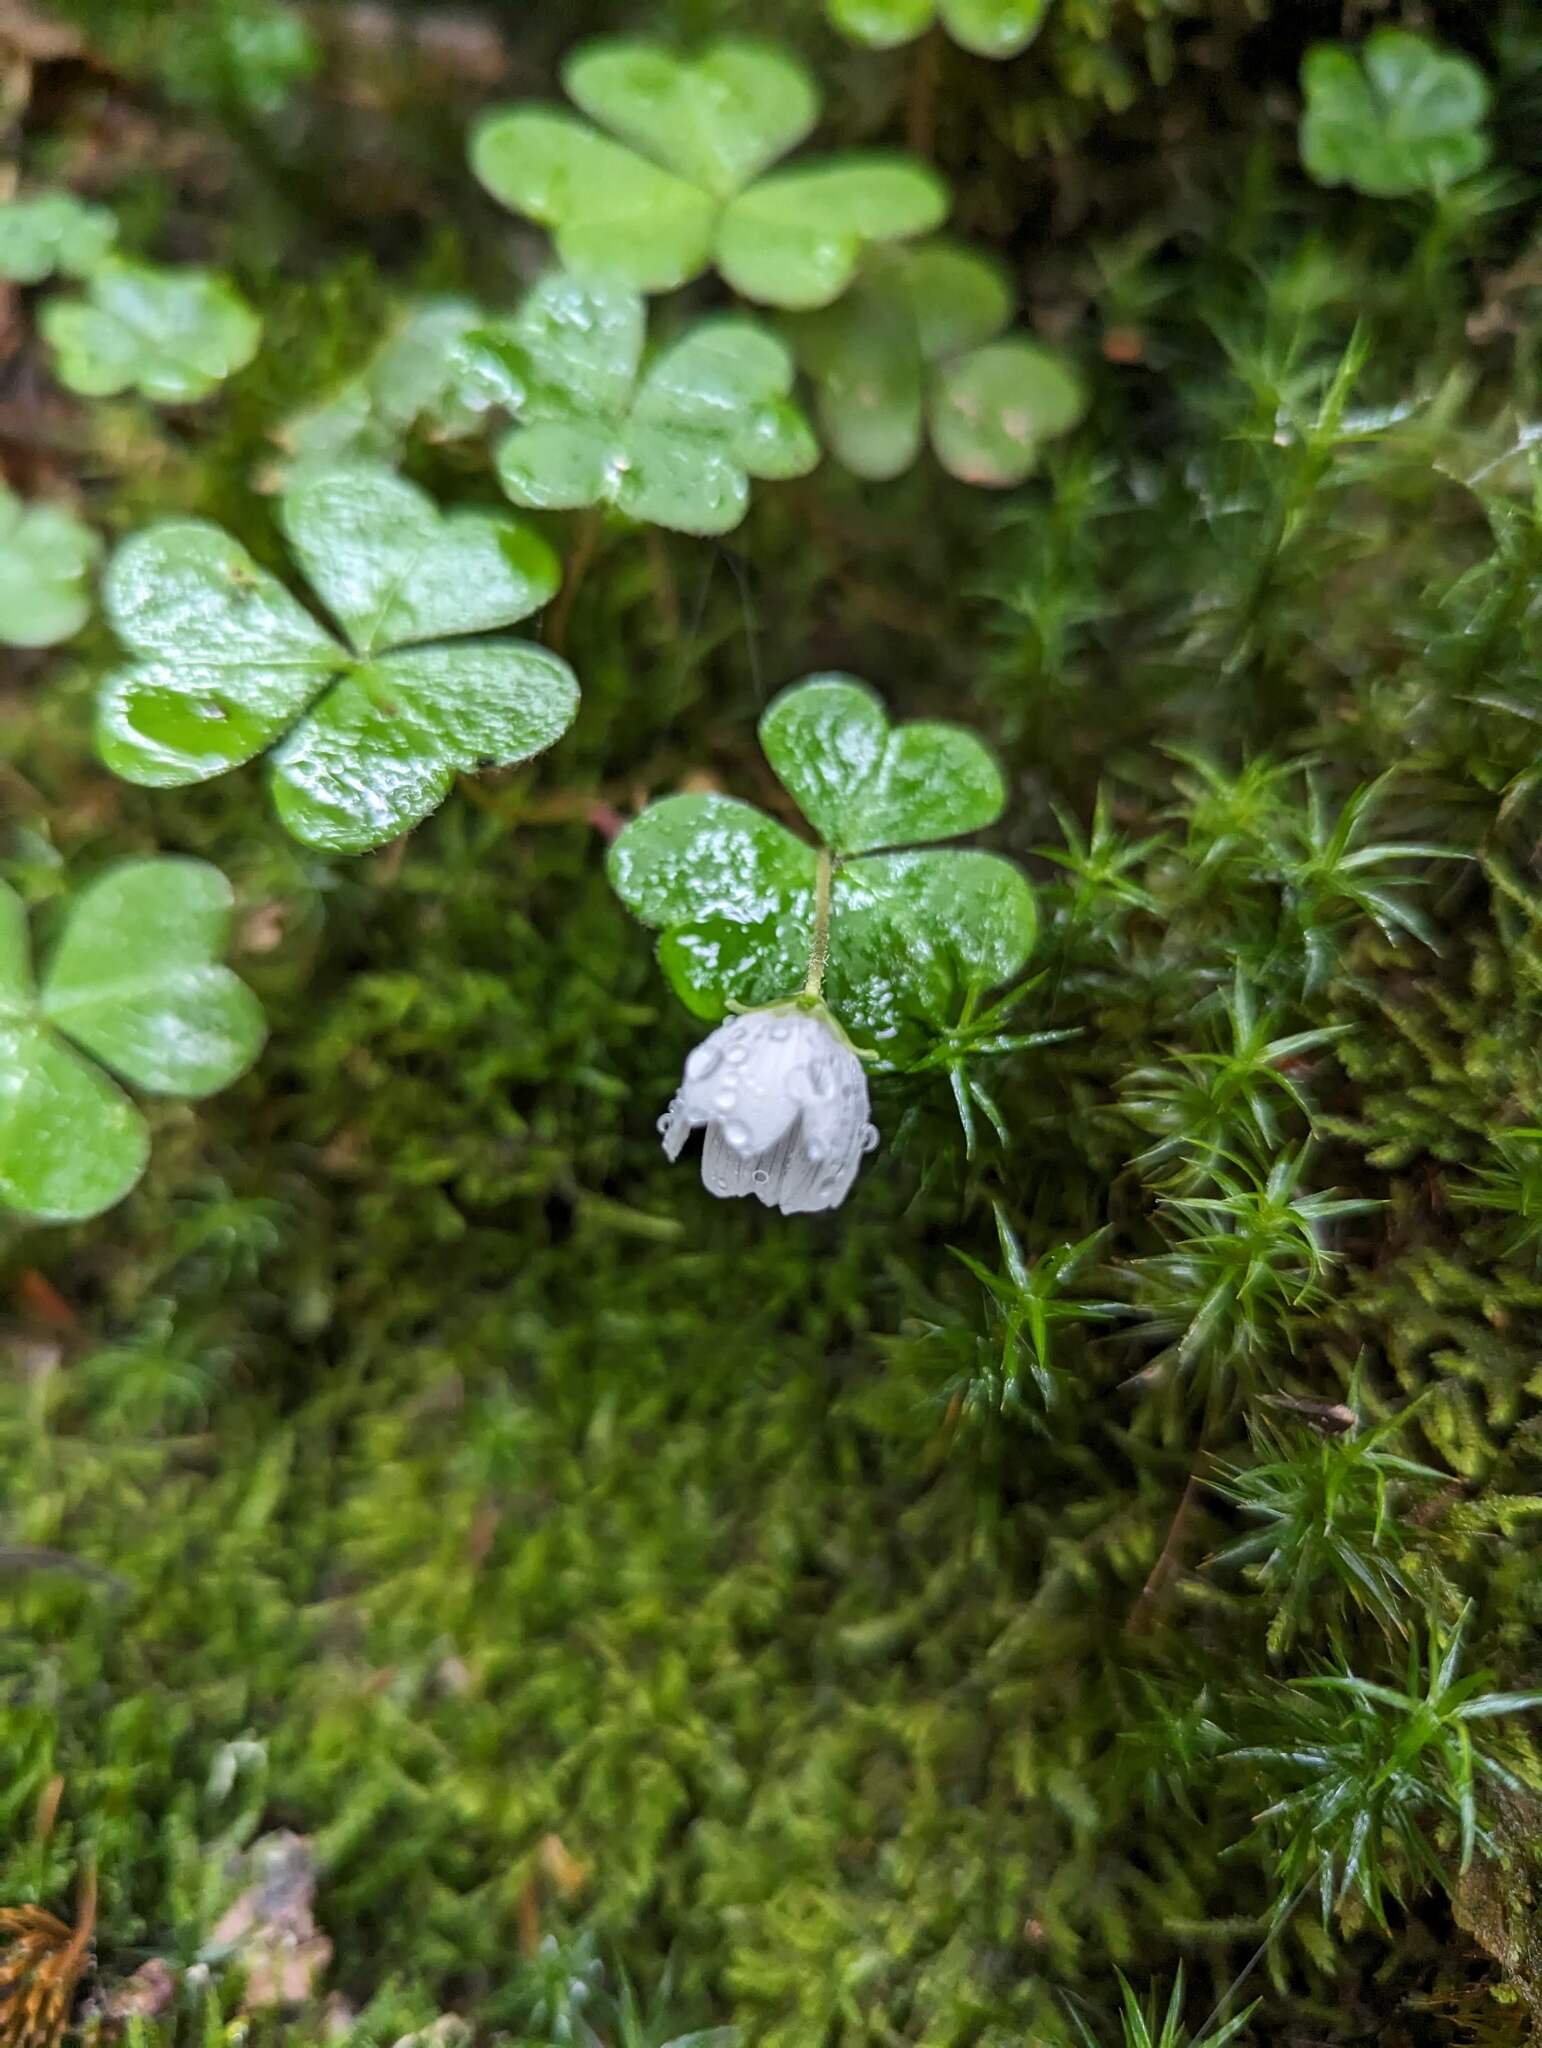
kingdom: Plantae
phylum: Tracheophyta
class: Magnoliopsida
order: Oxalidales
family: Oxalidaceae
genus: Oxalis
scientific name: Oxalis montana
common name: American wood-sorrel
